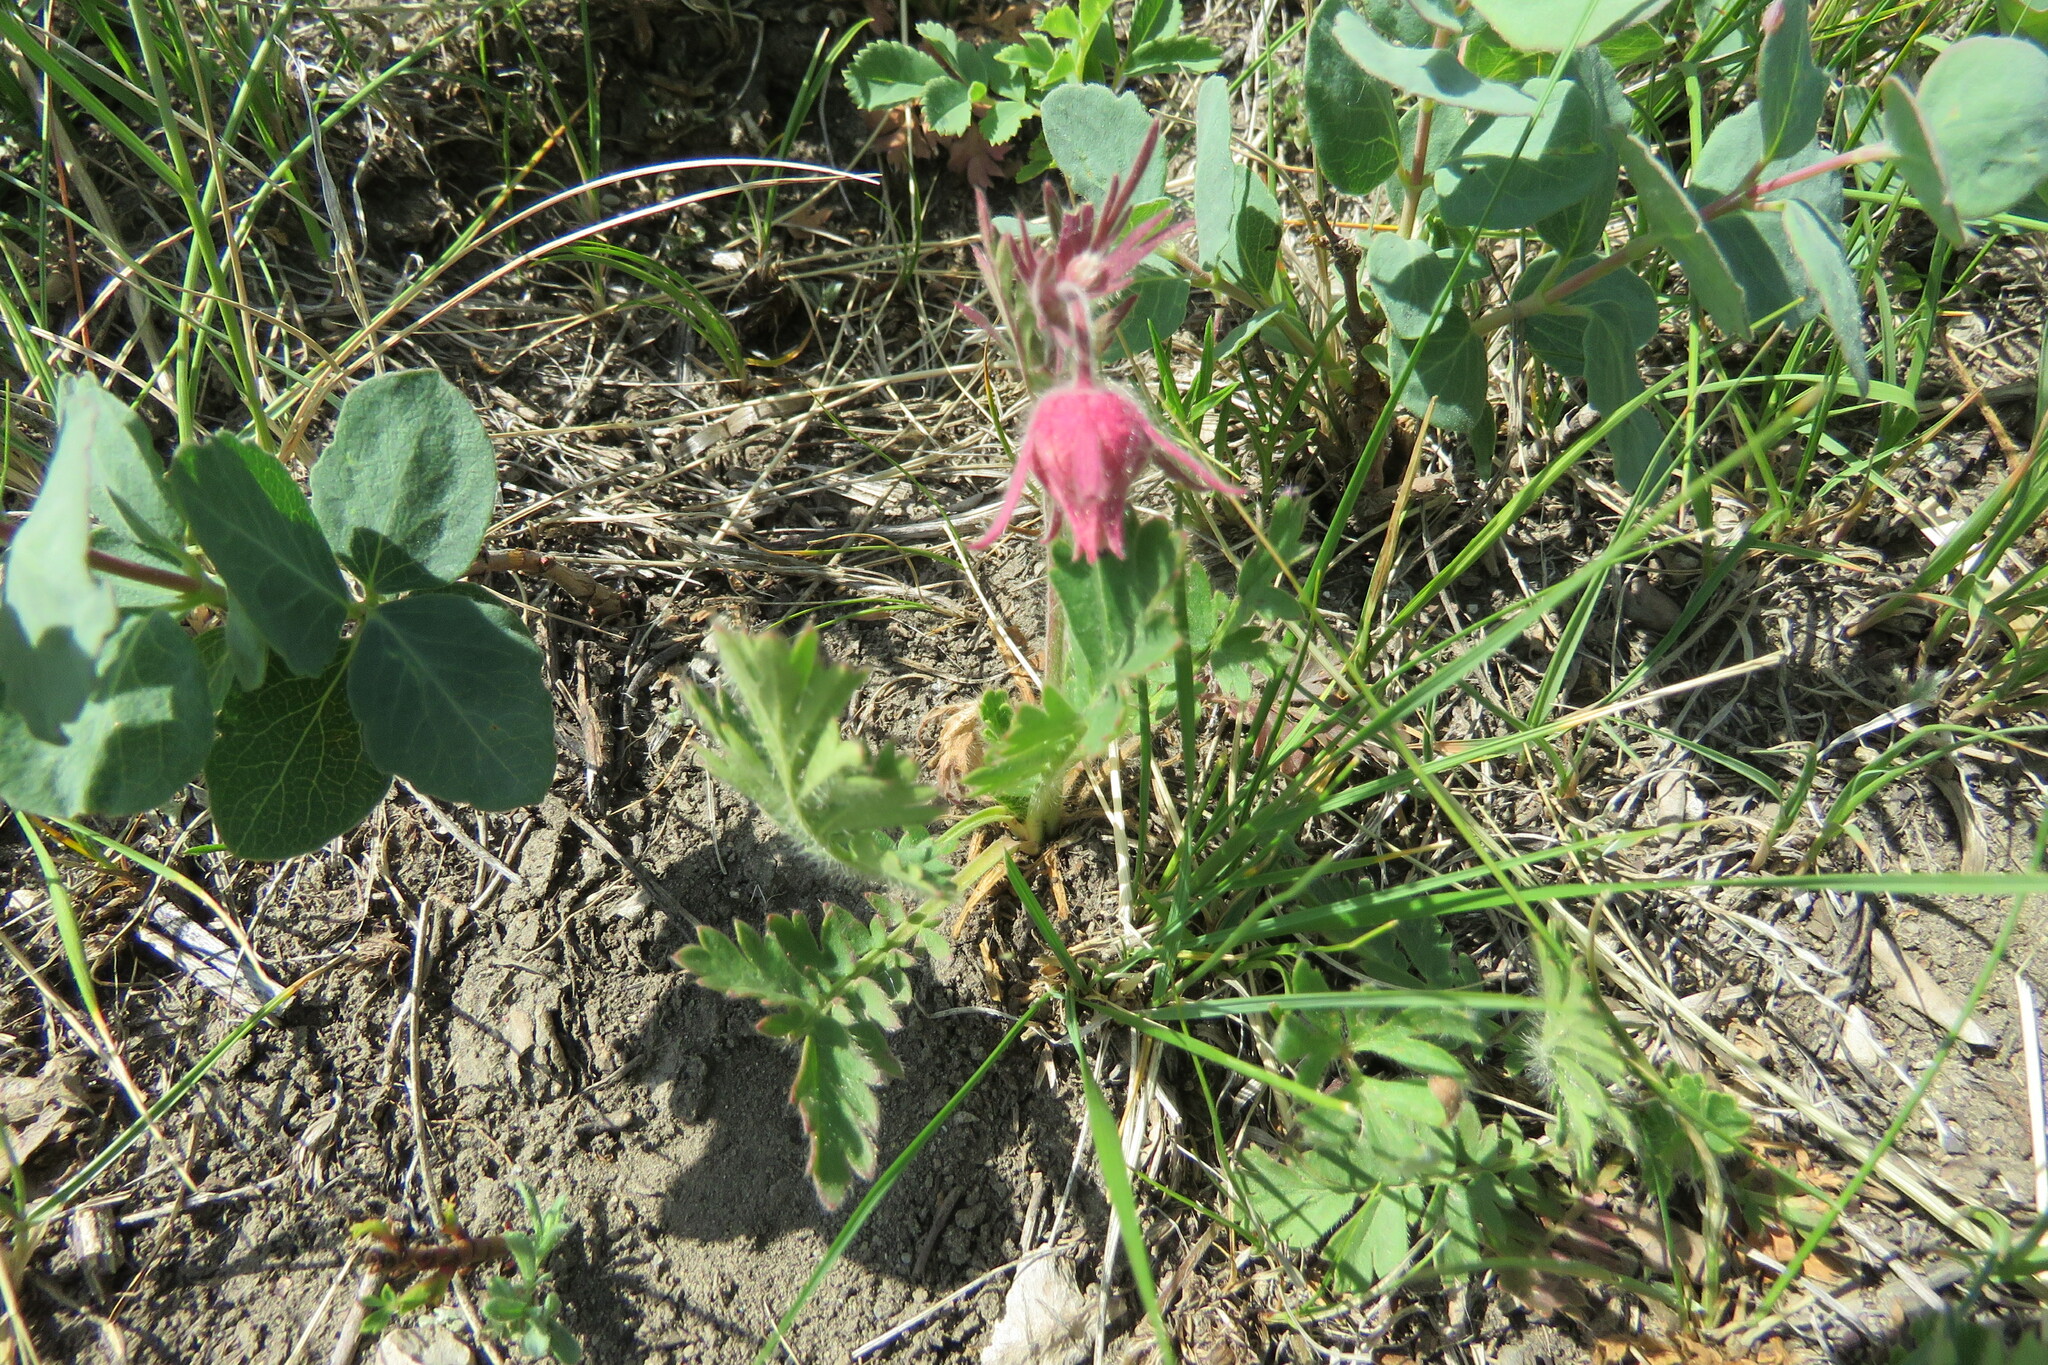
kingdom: Plantae
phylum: Tracheophyta
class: Magnoliopsida
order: Rosales
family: Rosaceae
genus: Geum
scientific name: Geum triflorum
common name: Old man's whiskers
